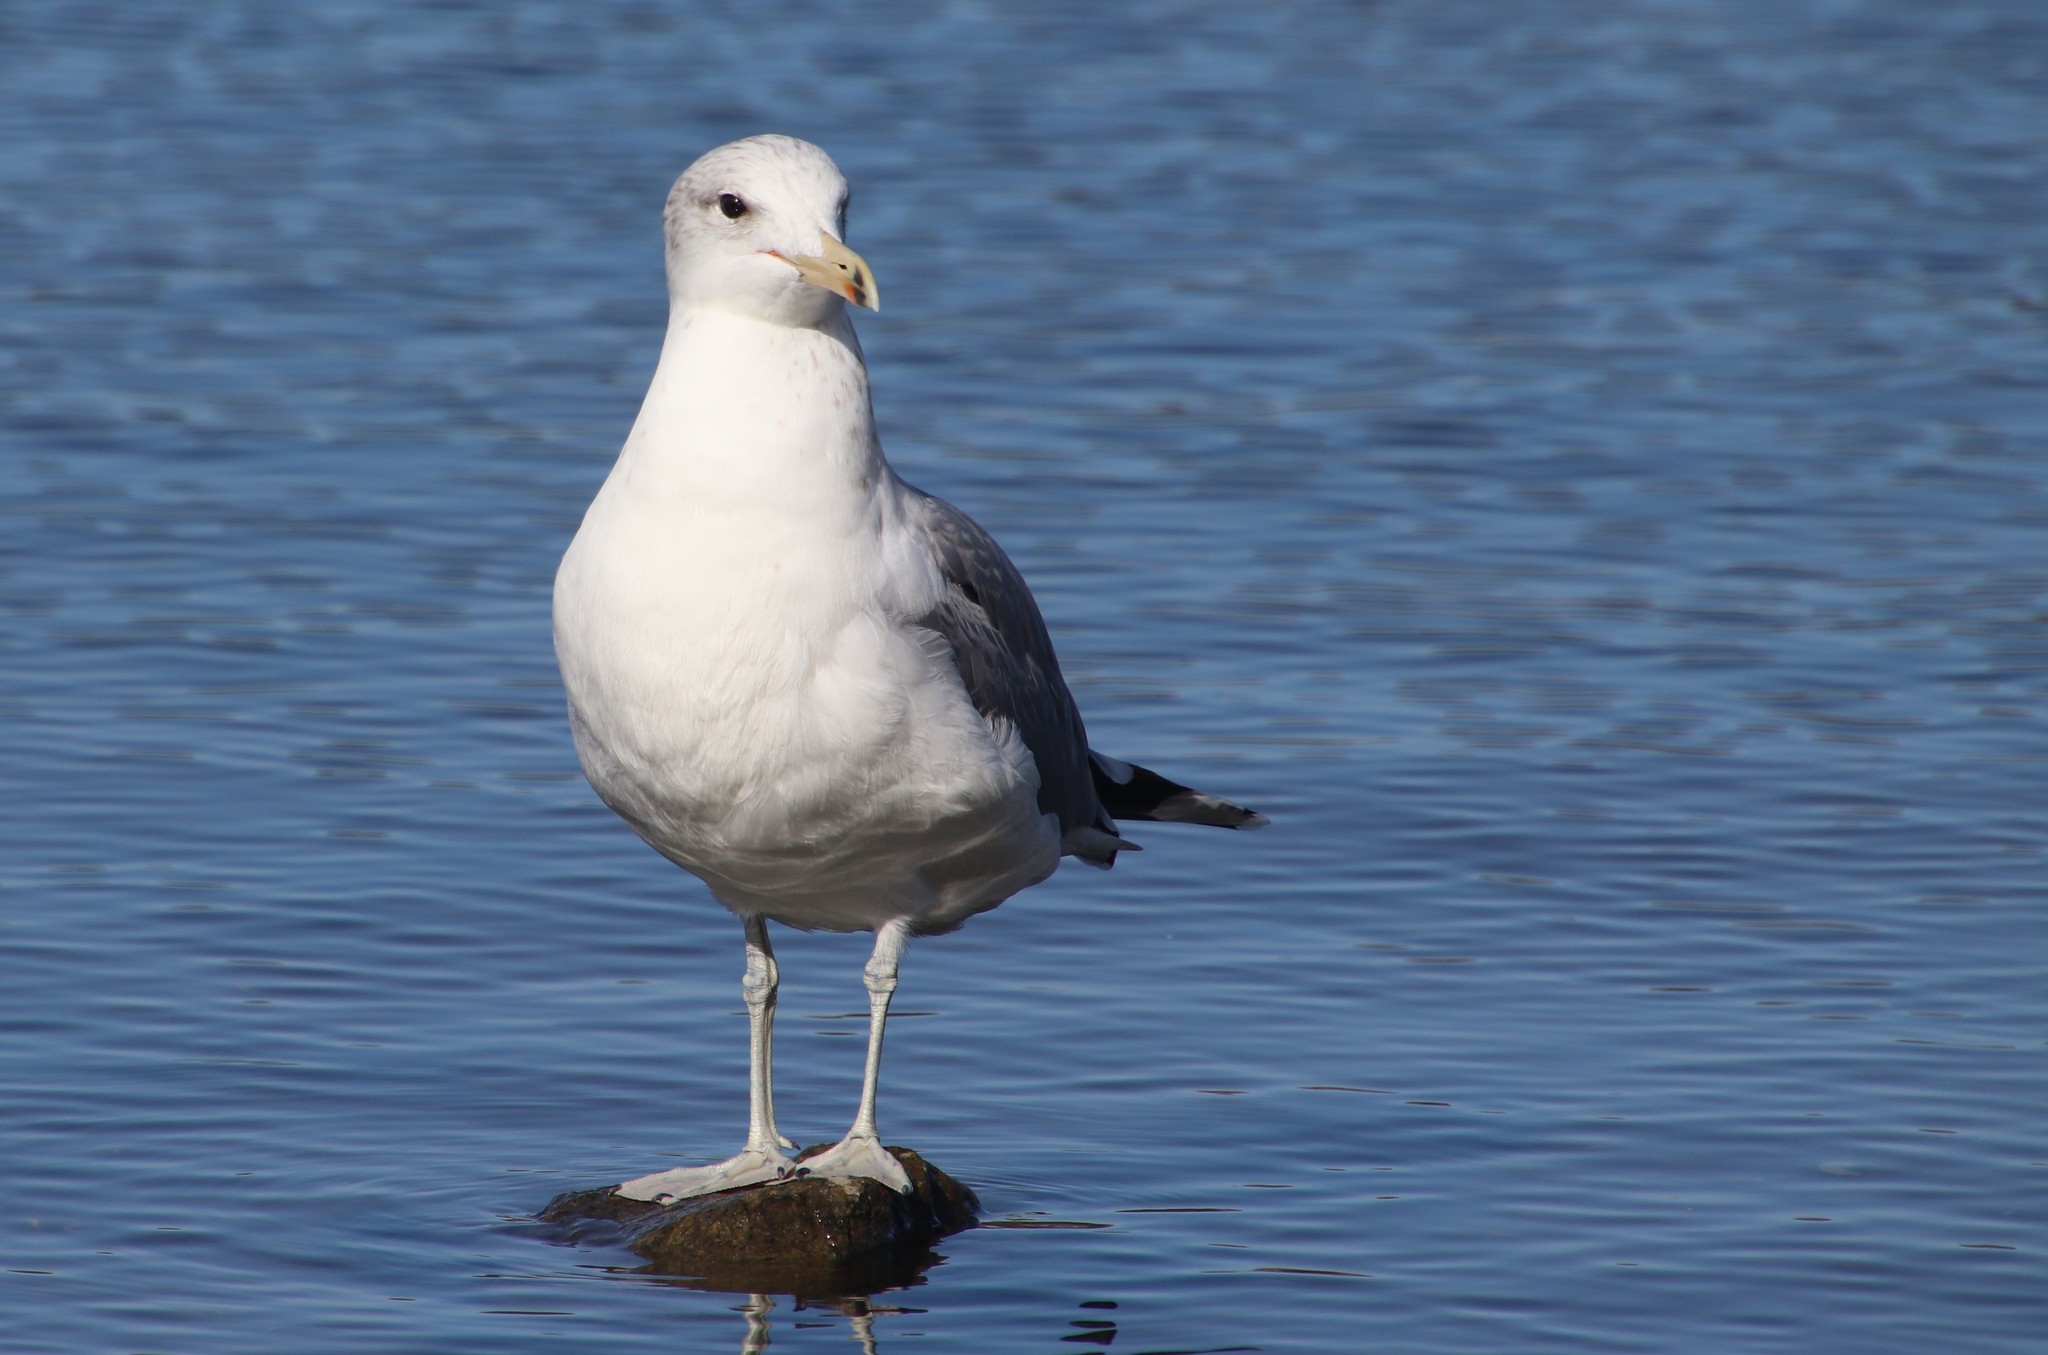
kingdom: Animalia
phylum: Chordata
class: Aves
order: Charadriiformes
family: Laridae
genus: Larus
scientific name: Larus californicus
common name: California gull
